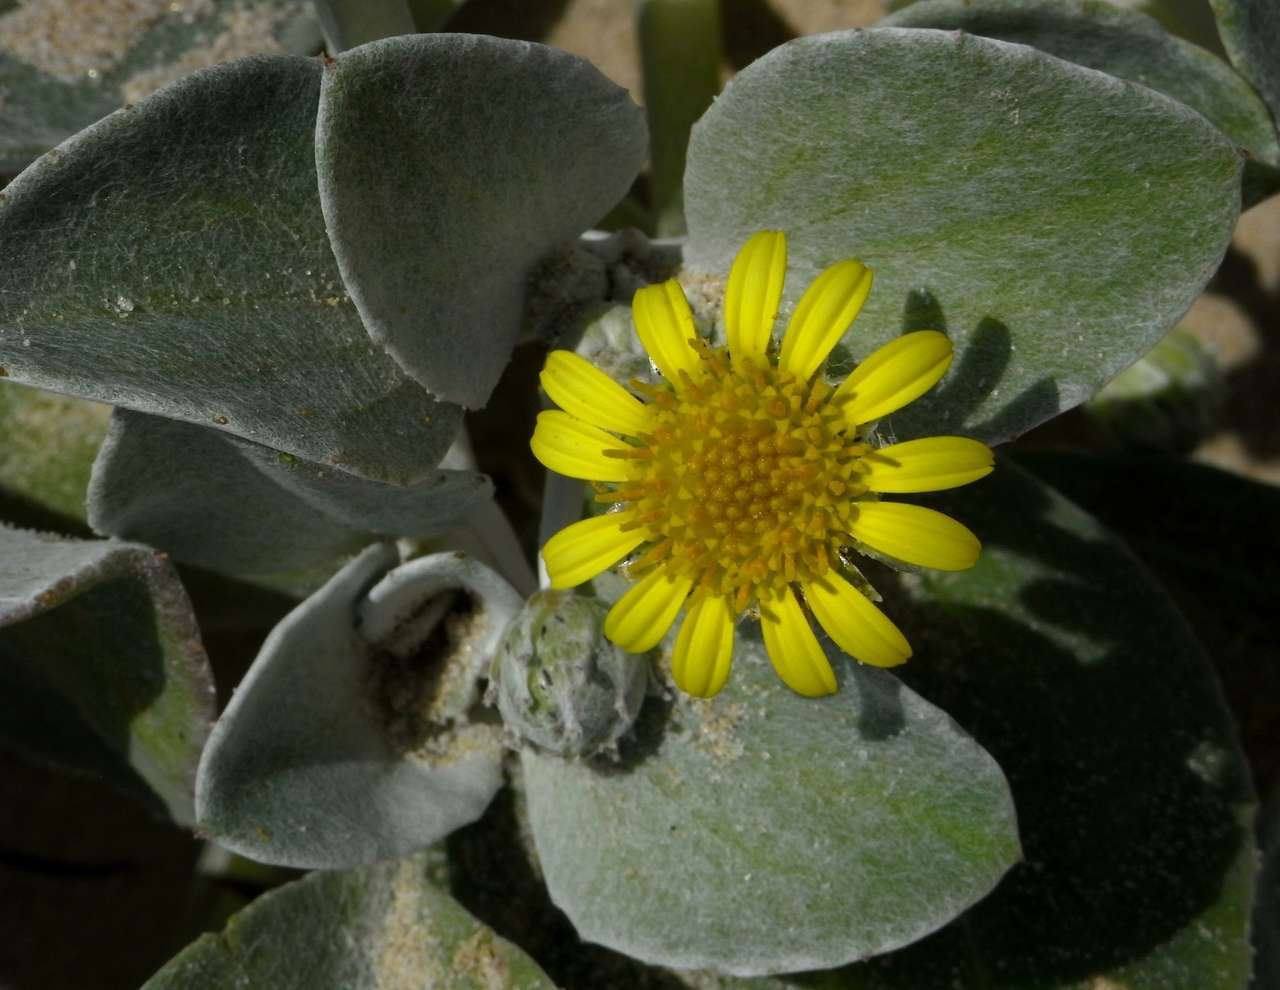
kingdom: Plantae
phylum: Tracheophyta
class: Magnoliopsida
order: Asterales
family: Asteraceae
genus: Arctotheca
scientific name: Arctotheca populifolia
